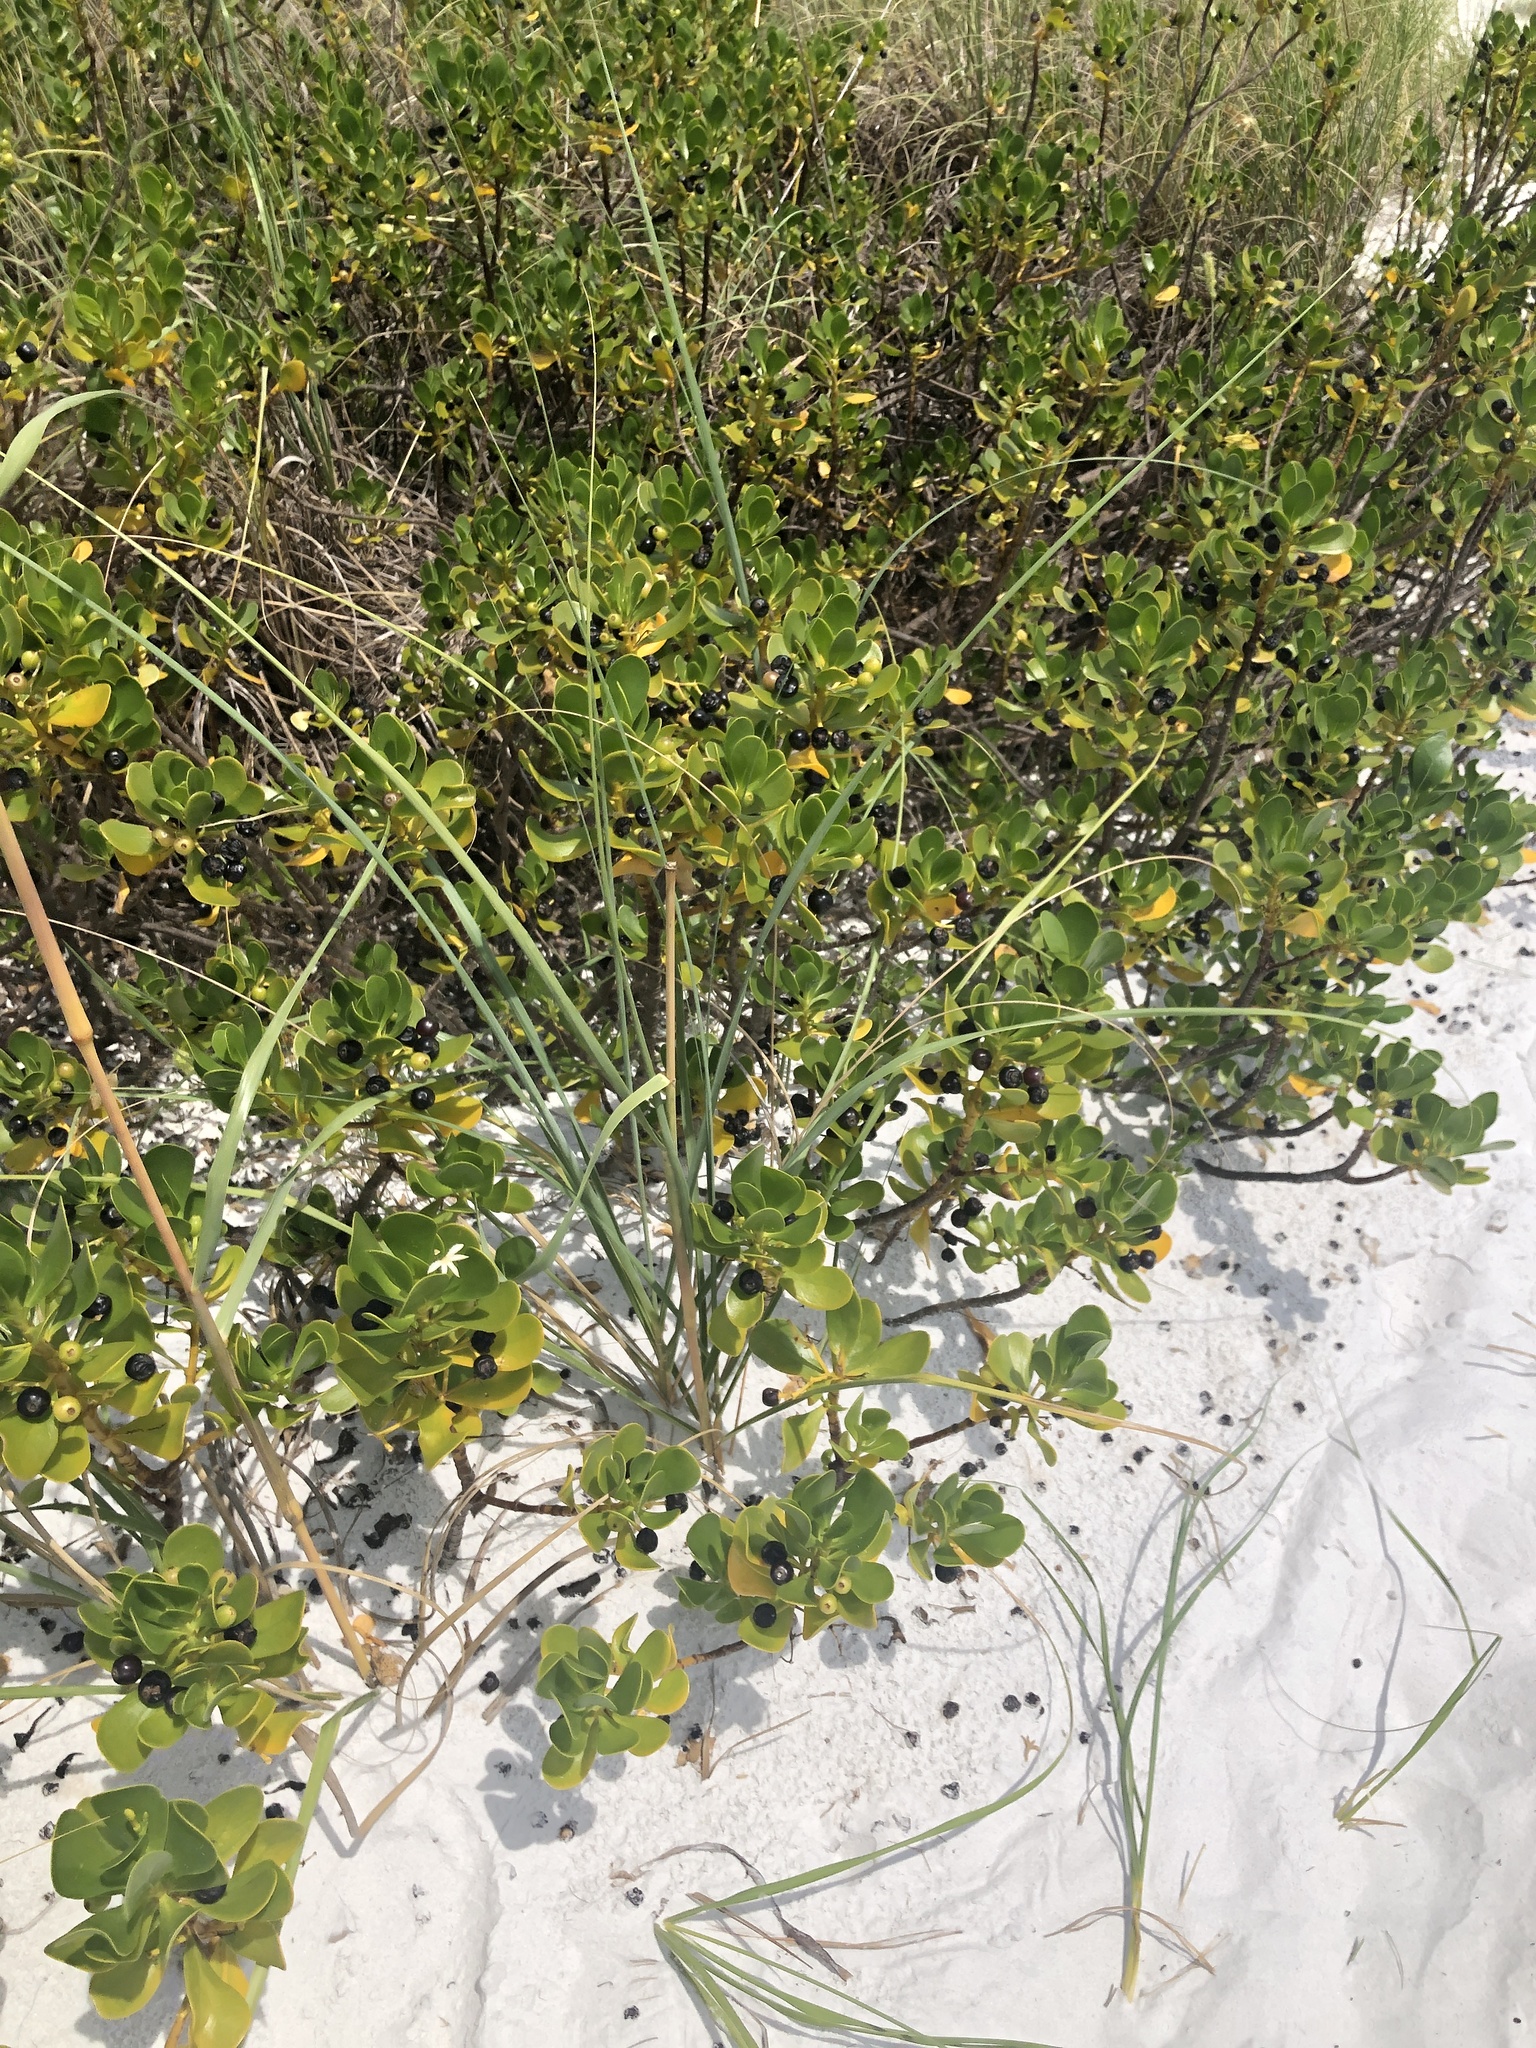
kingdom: Plantae
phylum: Tracheophyta
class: Magnoliopsida
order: Asterales
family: Goodeniaceae
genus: Scaevola
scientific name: Scaevola plumieri
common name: Gull feed
